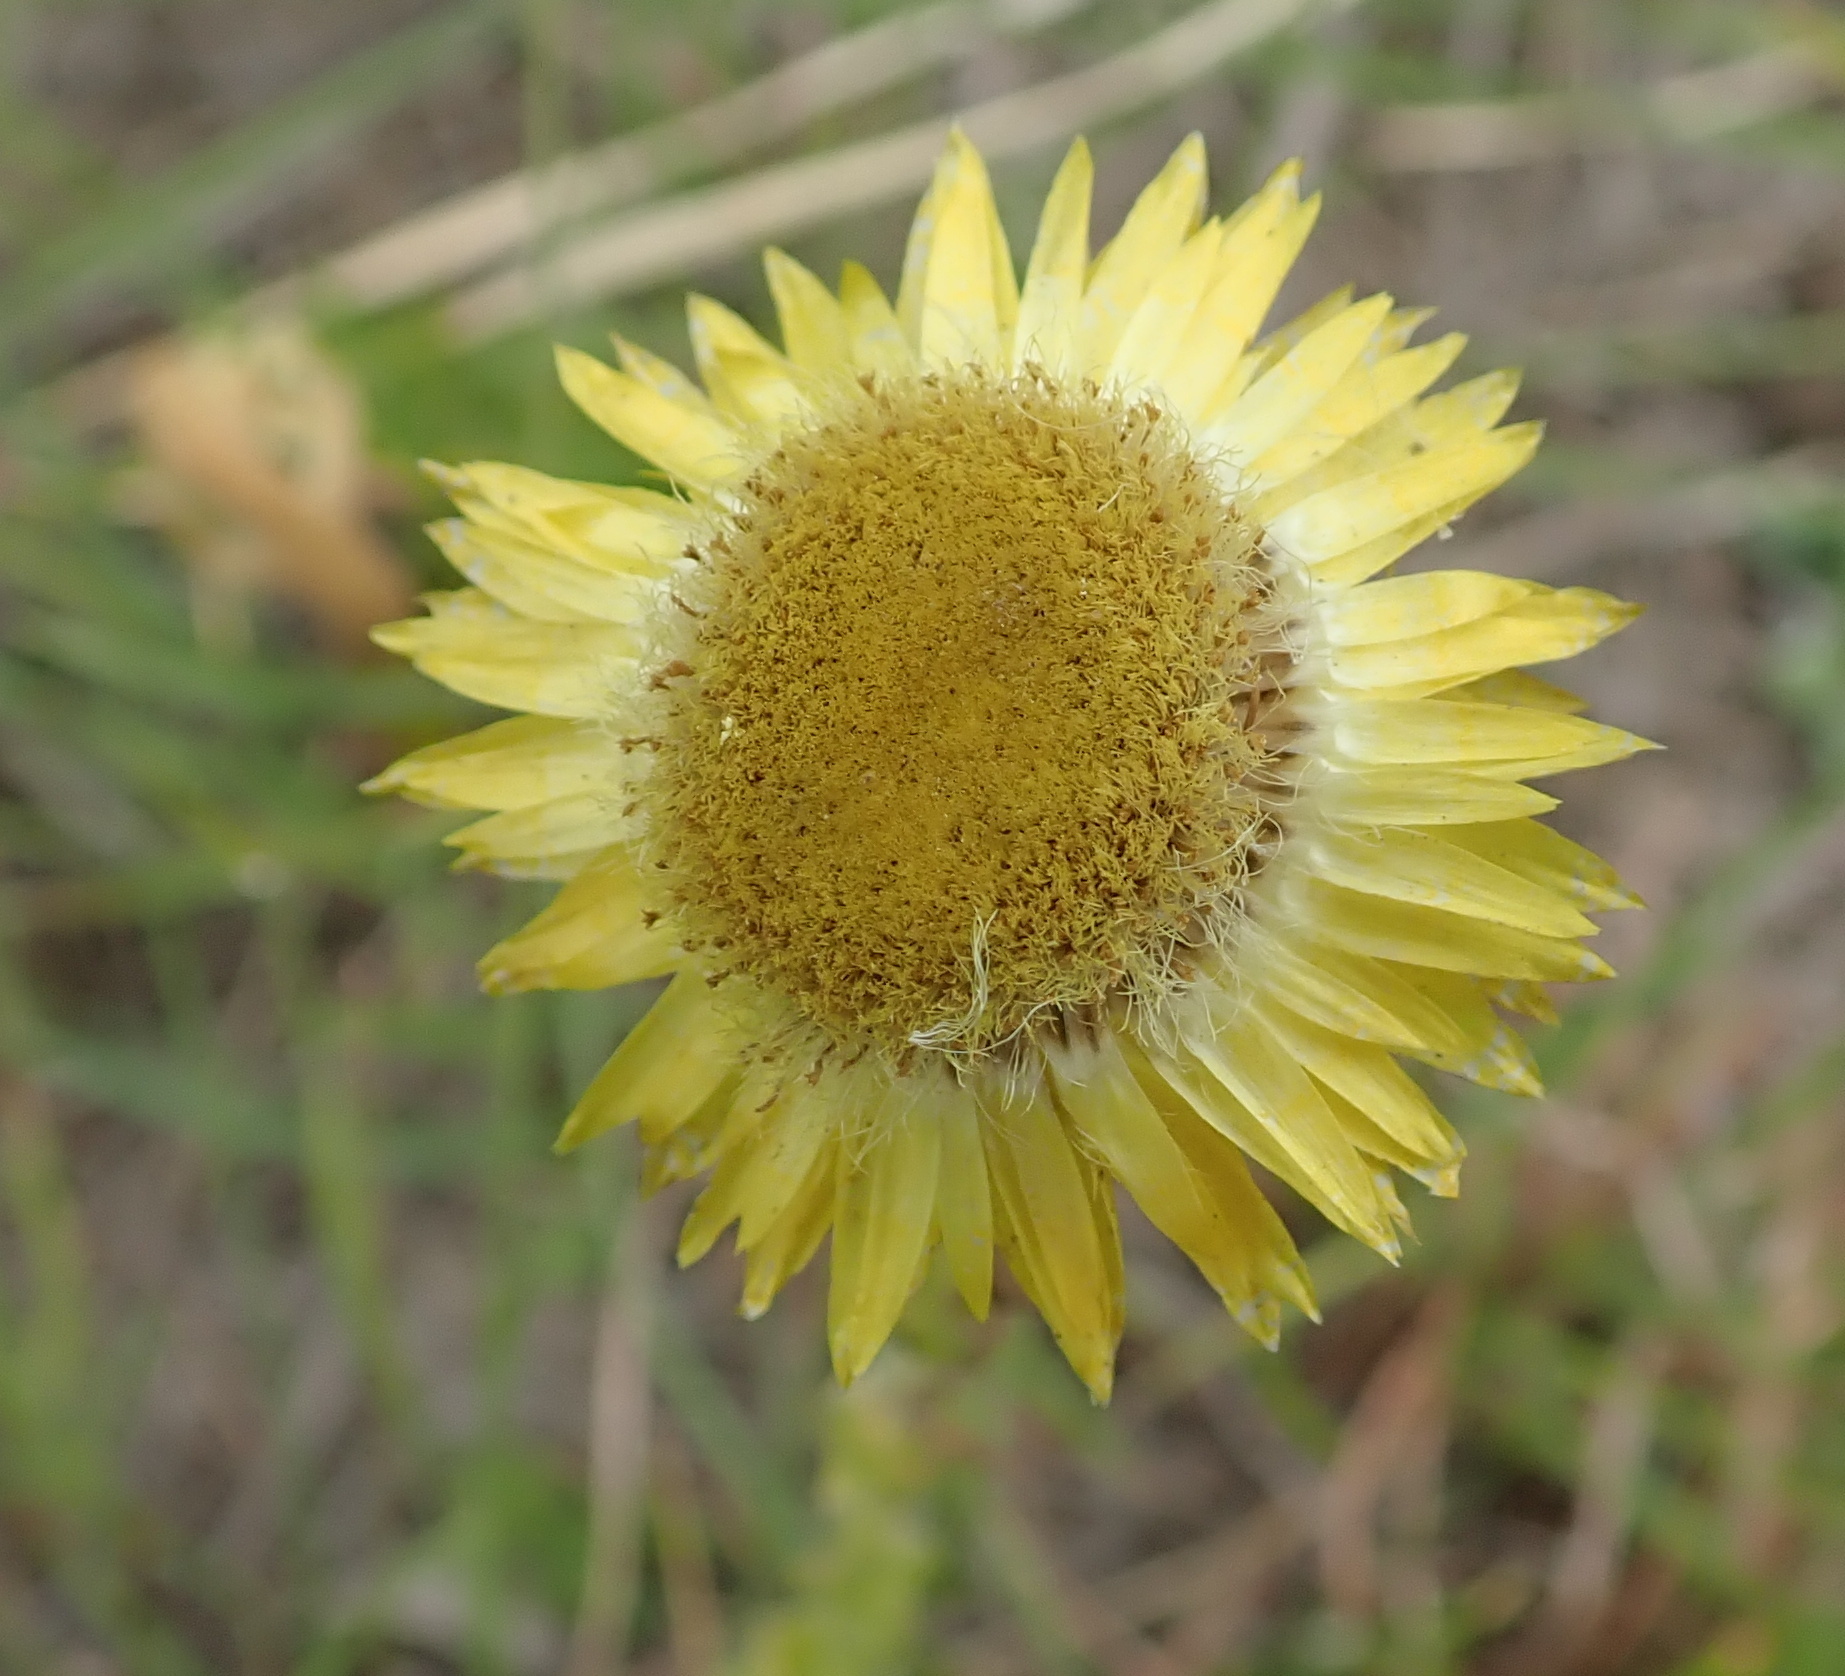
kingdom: Plantae
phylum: Tracheophyta
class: Magnoliopsida
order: Asterales
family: Asteraceae
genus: Helichrysum
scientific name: Helichrysum aureum
